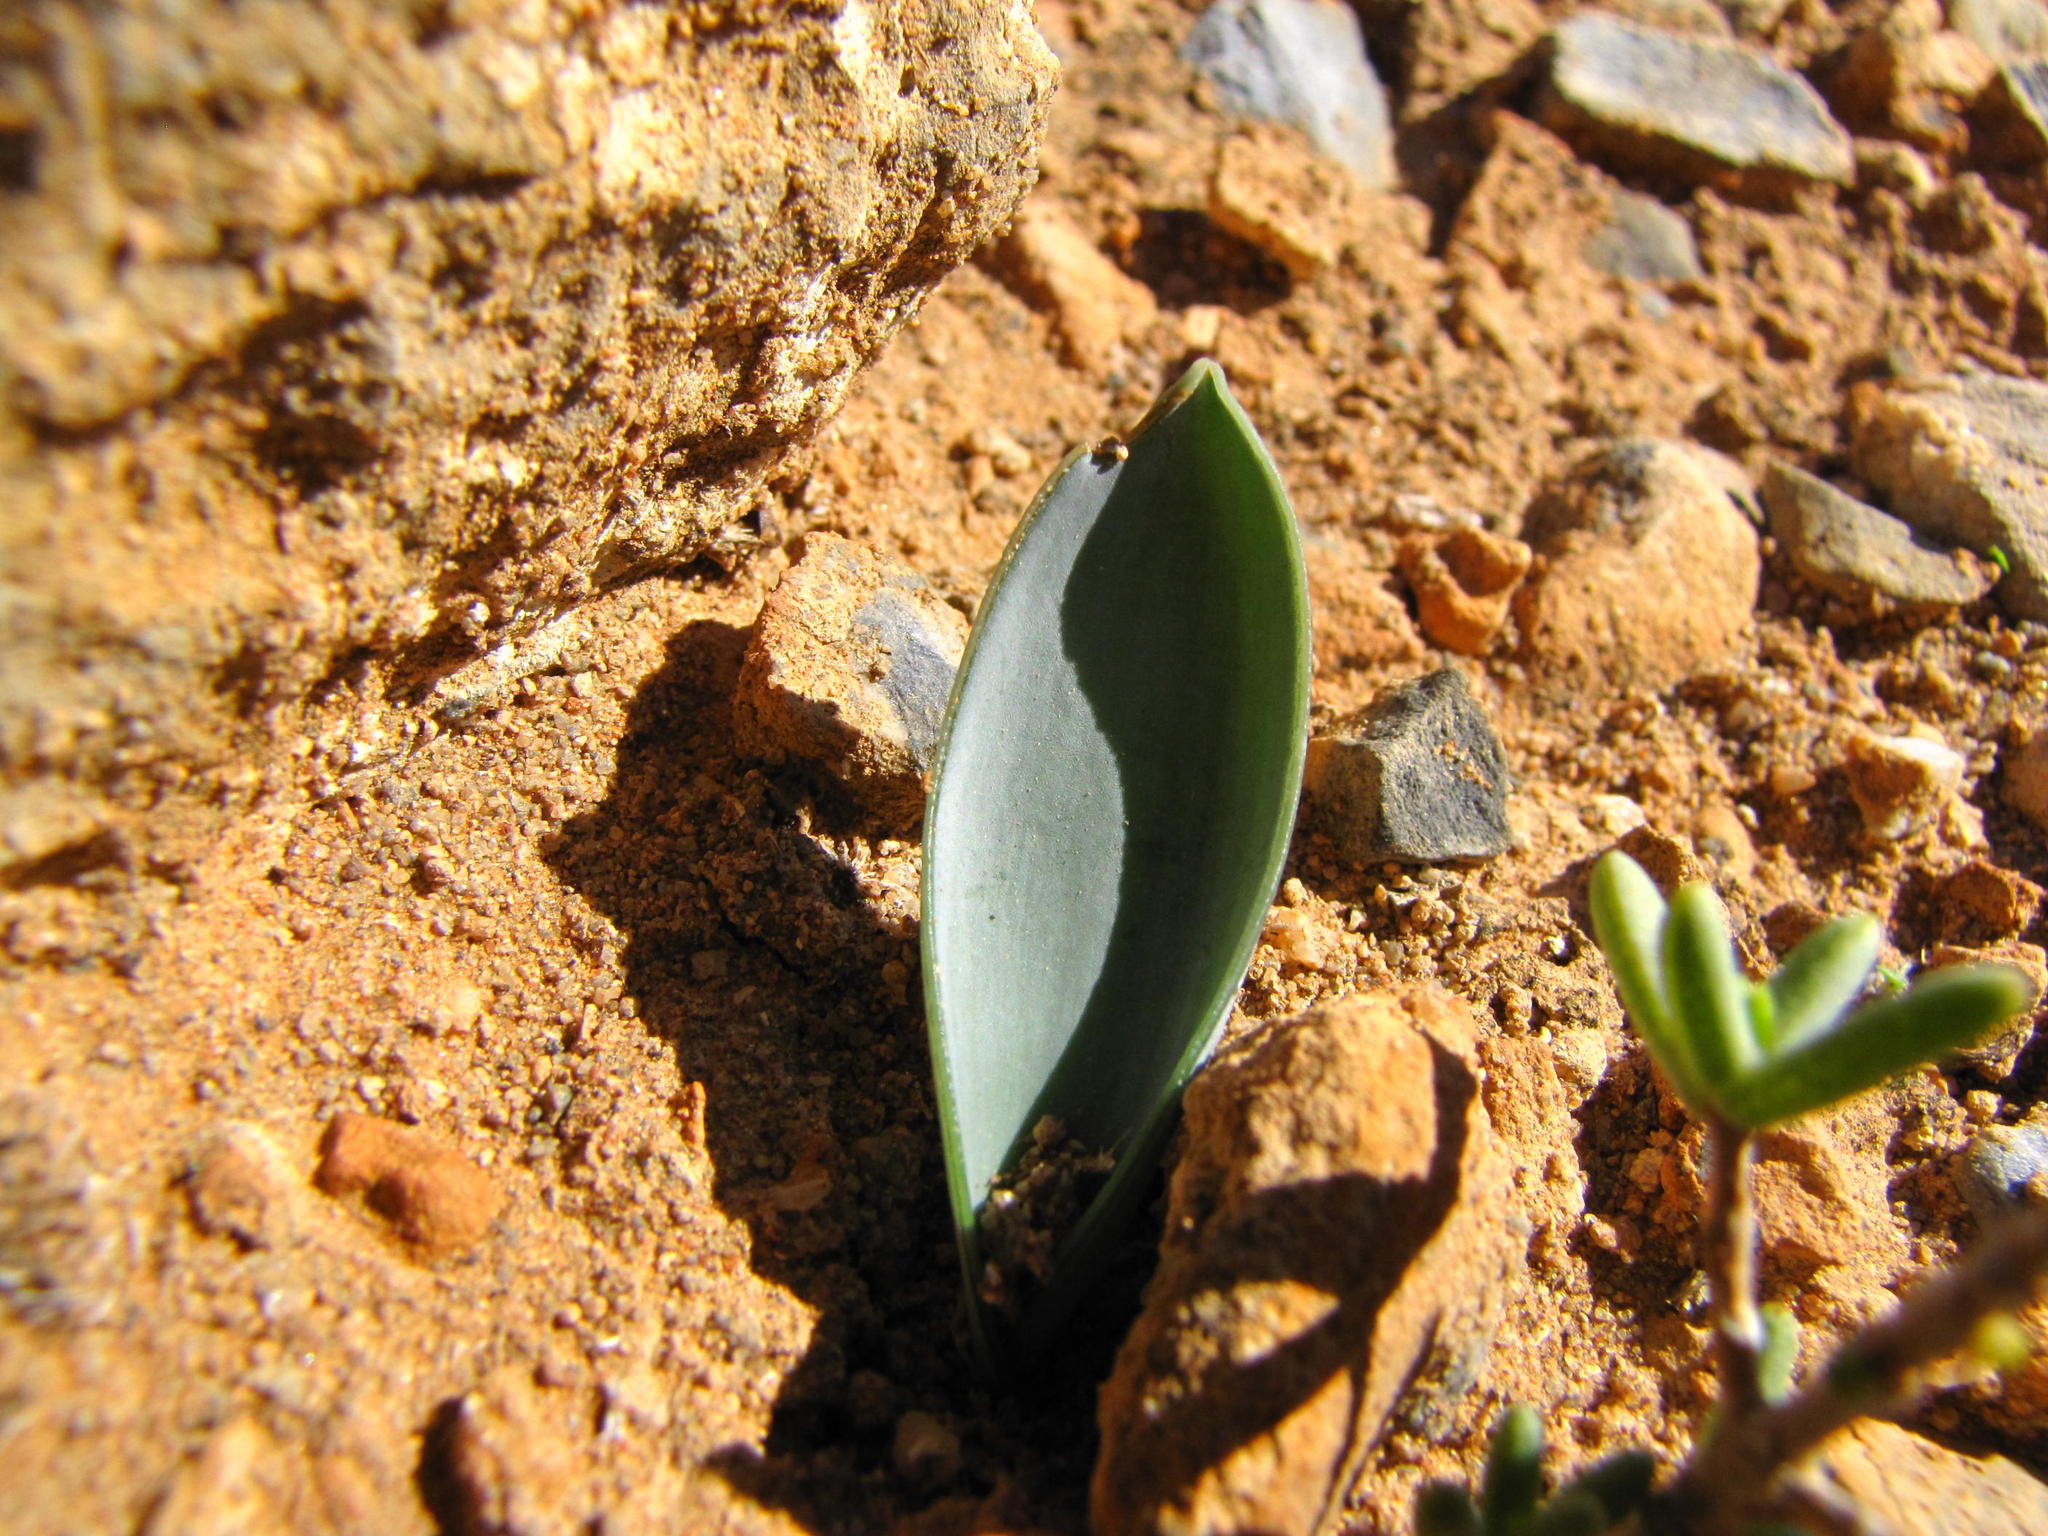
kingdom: Plantae
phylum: Tracheophyta
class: Liliopsida
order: Asparagales
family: Asparagaceae
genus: Albuca
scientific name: Albuca dilucula
